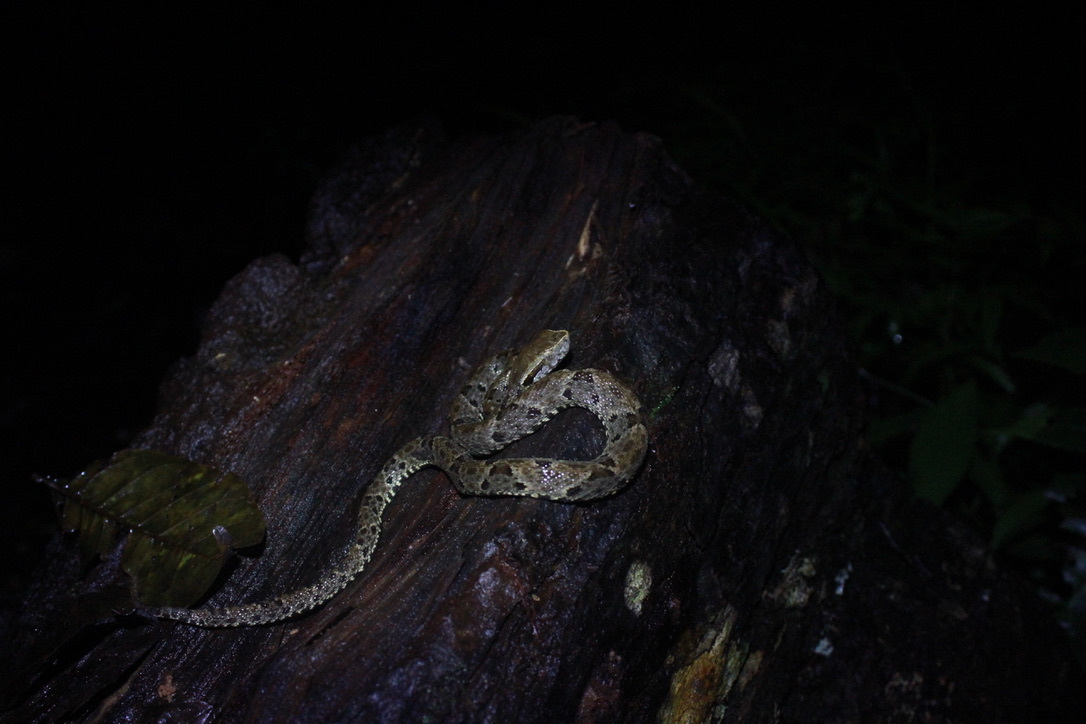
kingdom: Animalia
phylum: Chordata
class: Squamata
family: Viperidae
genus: Bothrops
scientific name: Bothrops atrox
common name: Common lancehead
